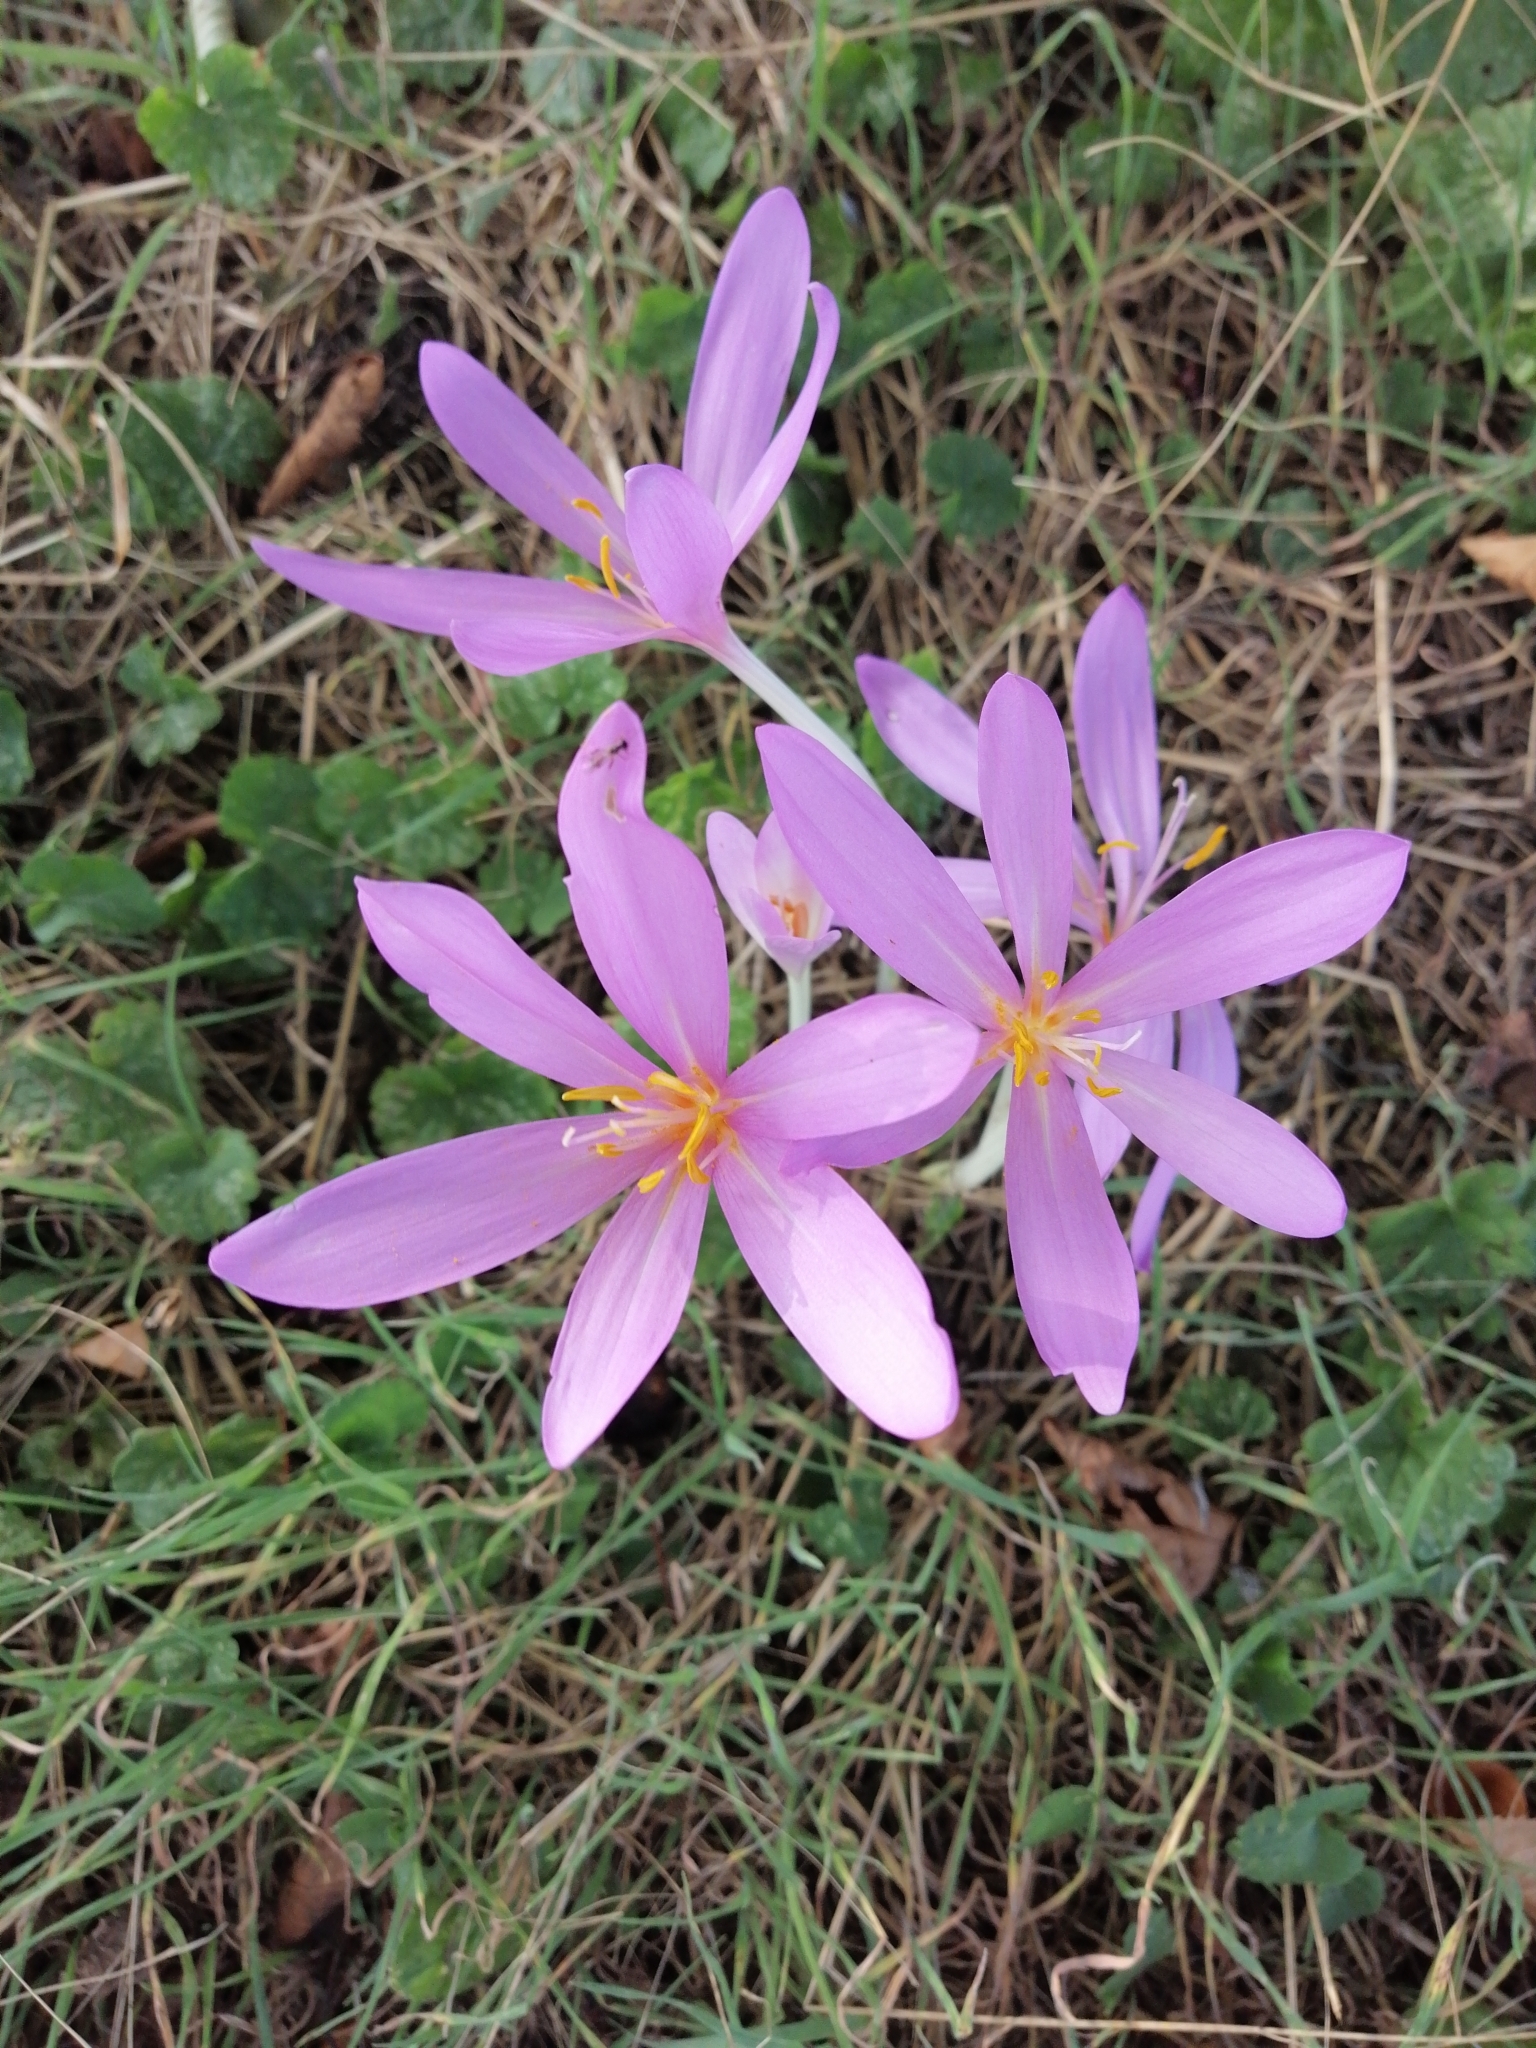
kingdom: Plantae
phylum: Tracheophyta
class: Liliopsida
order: Liliales
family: Colchicaceae
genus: Colchicum
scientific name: Colchicum autumnale
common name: Autumn crocus
